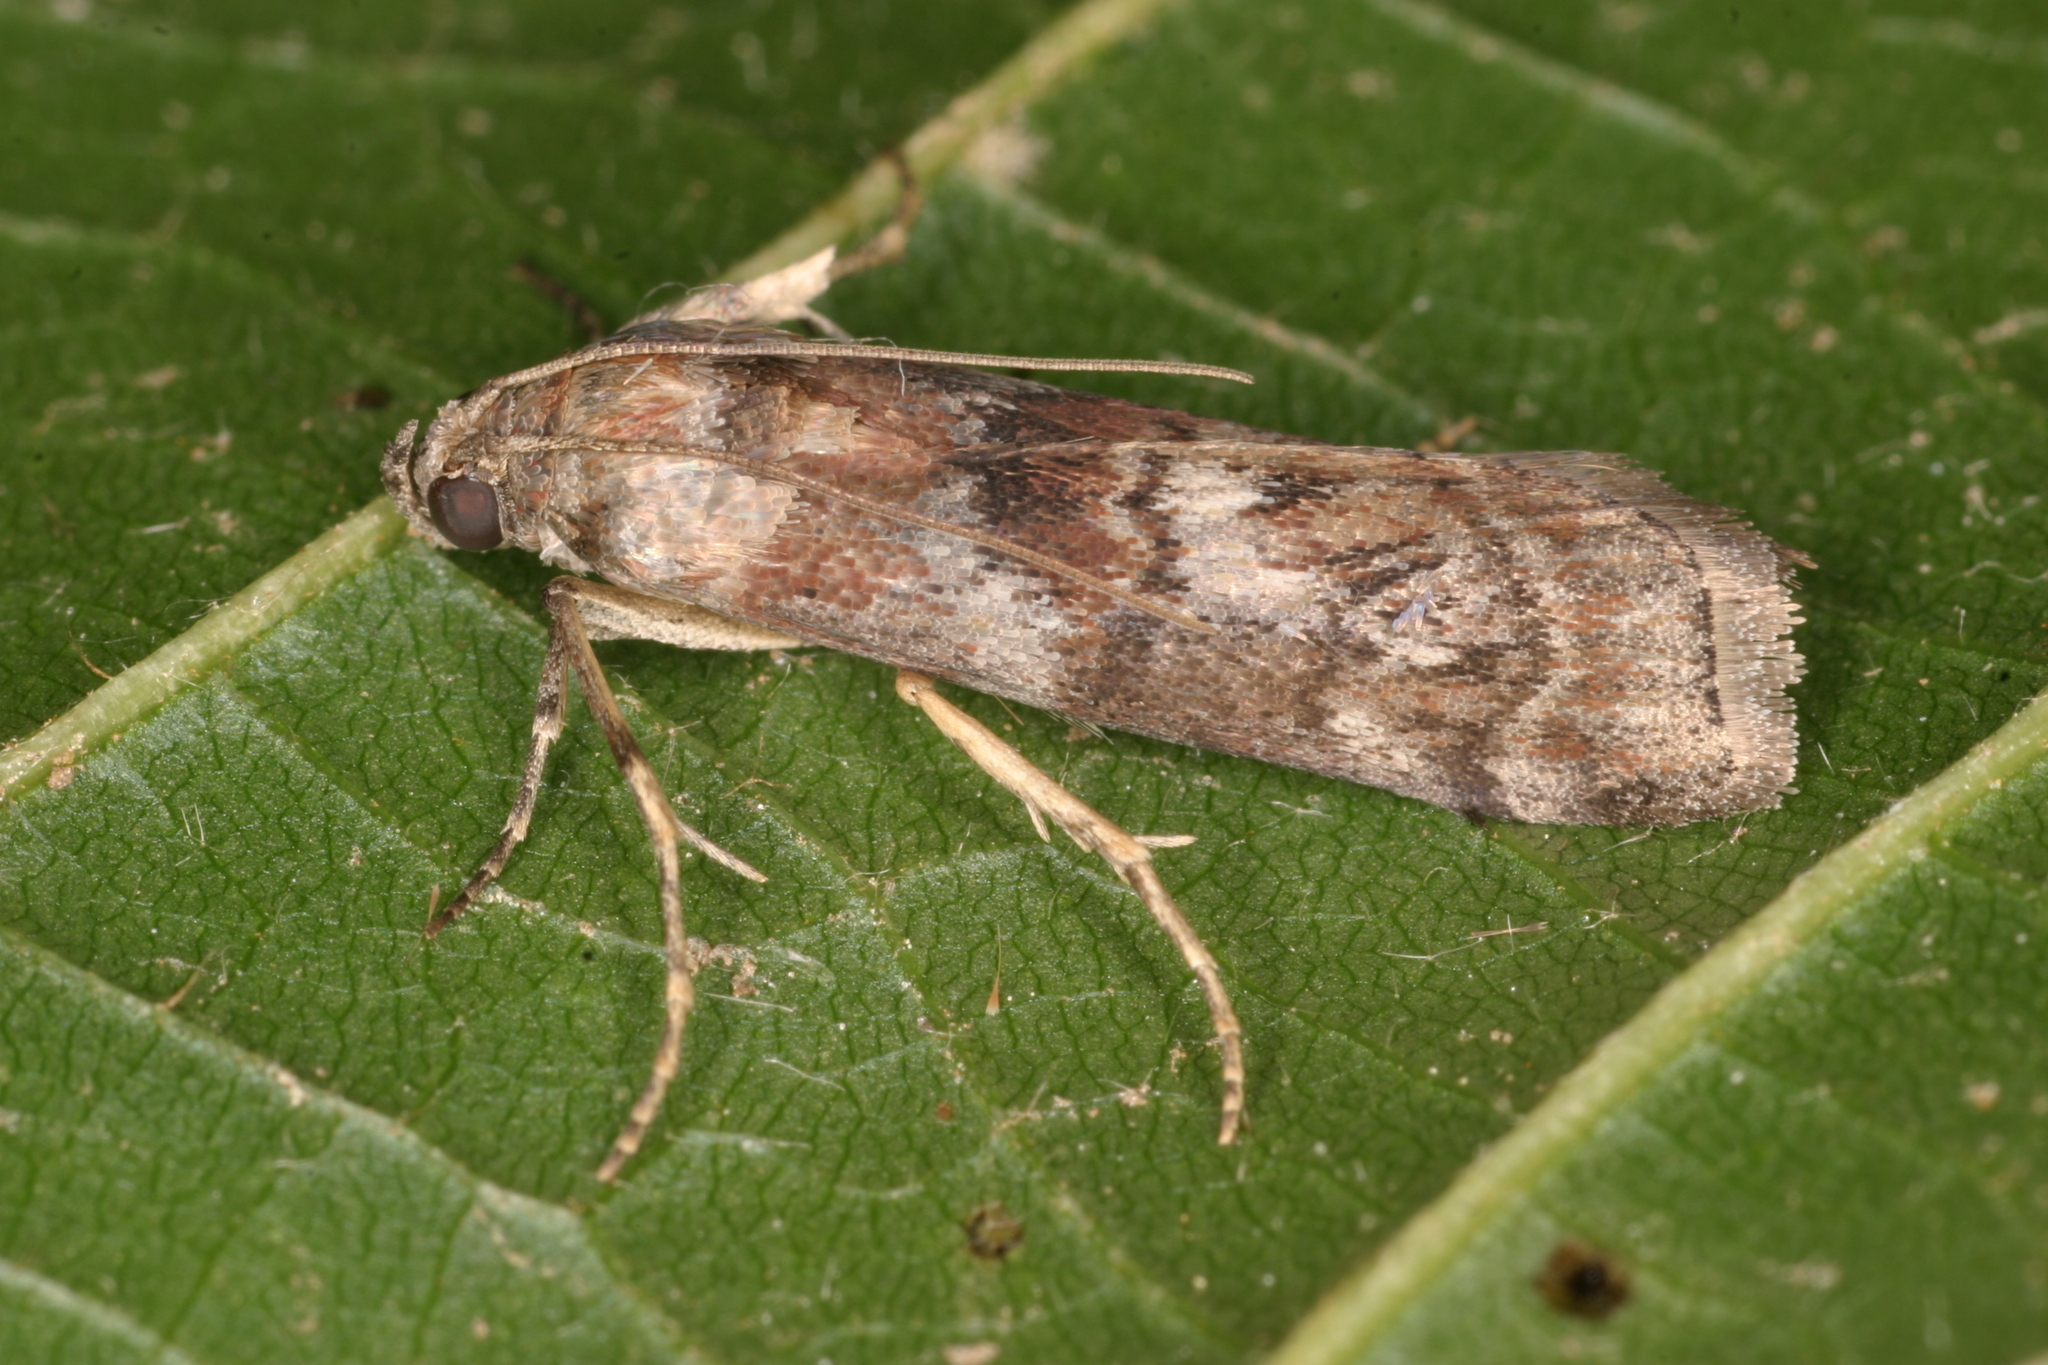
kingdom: Animalia
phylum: Arthropoda
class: Insecta
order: Lepidoptera
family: Pyralidae
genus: Phycita
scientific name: Phycita roborella
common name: Dotted oak knot-horn
